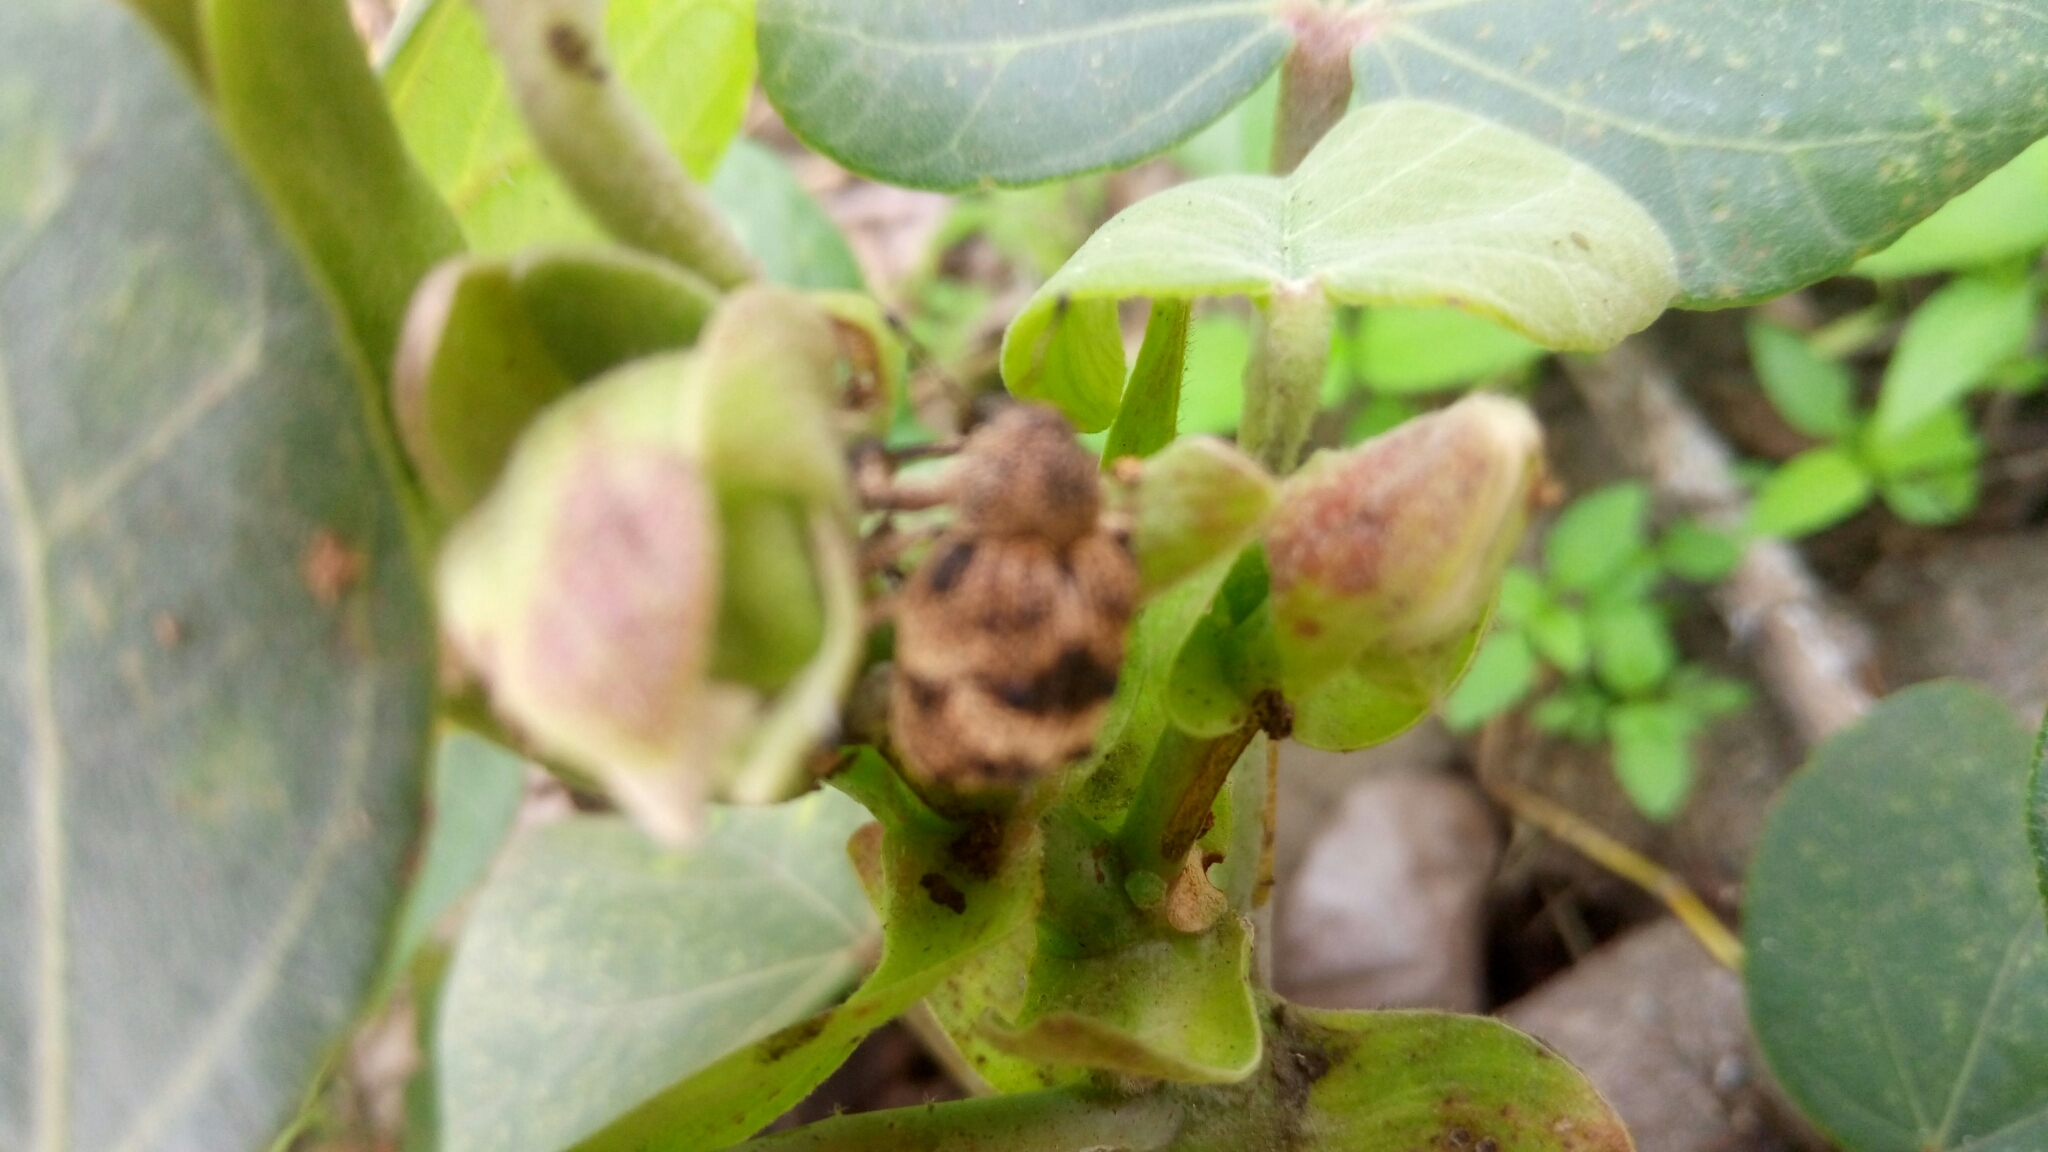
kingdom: Animalia
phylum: Arthropoda
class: Insecta
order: Coleoptera
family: Brachyceridae
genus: Desmidophorus
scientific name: Desmidophorus crassus
